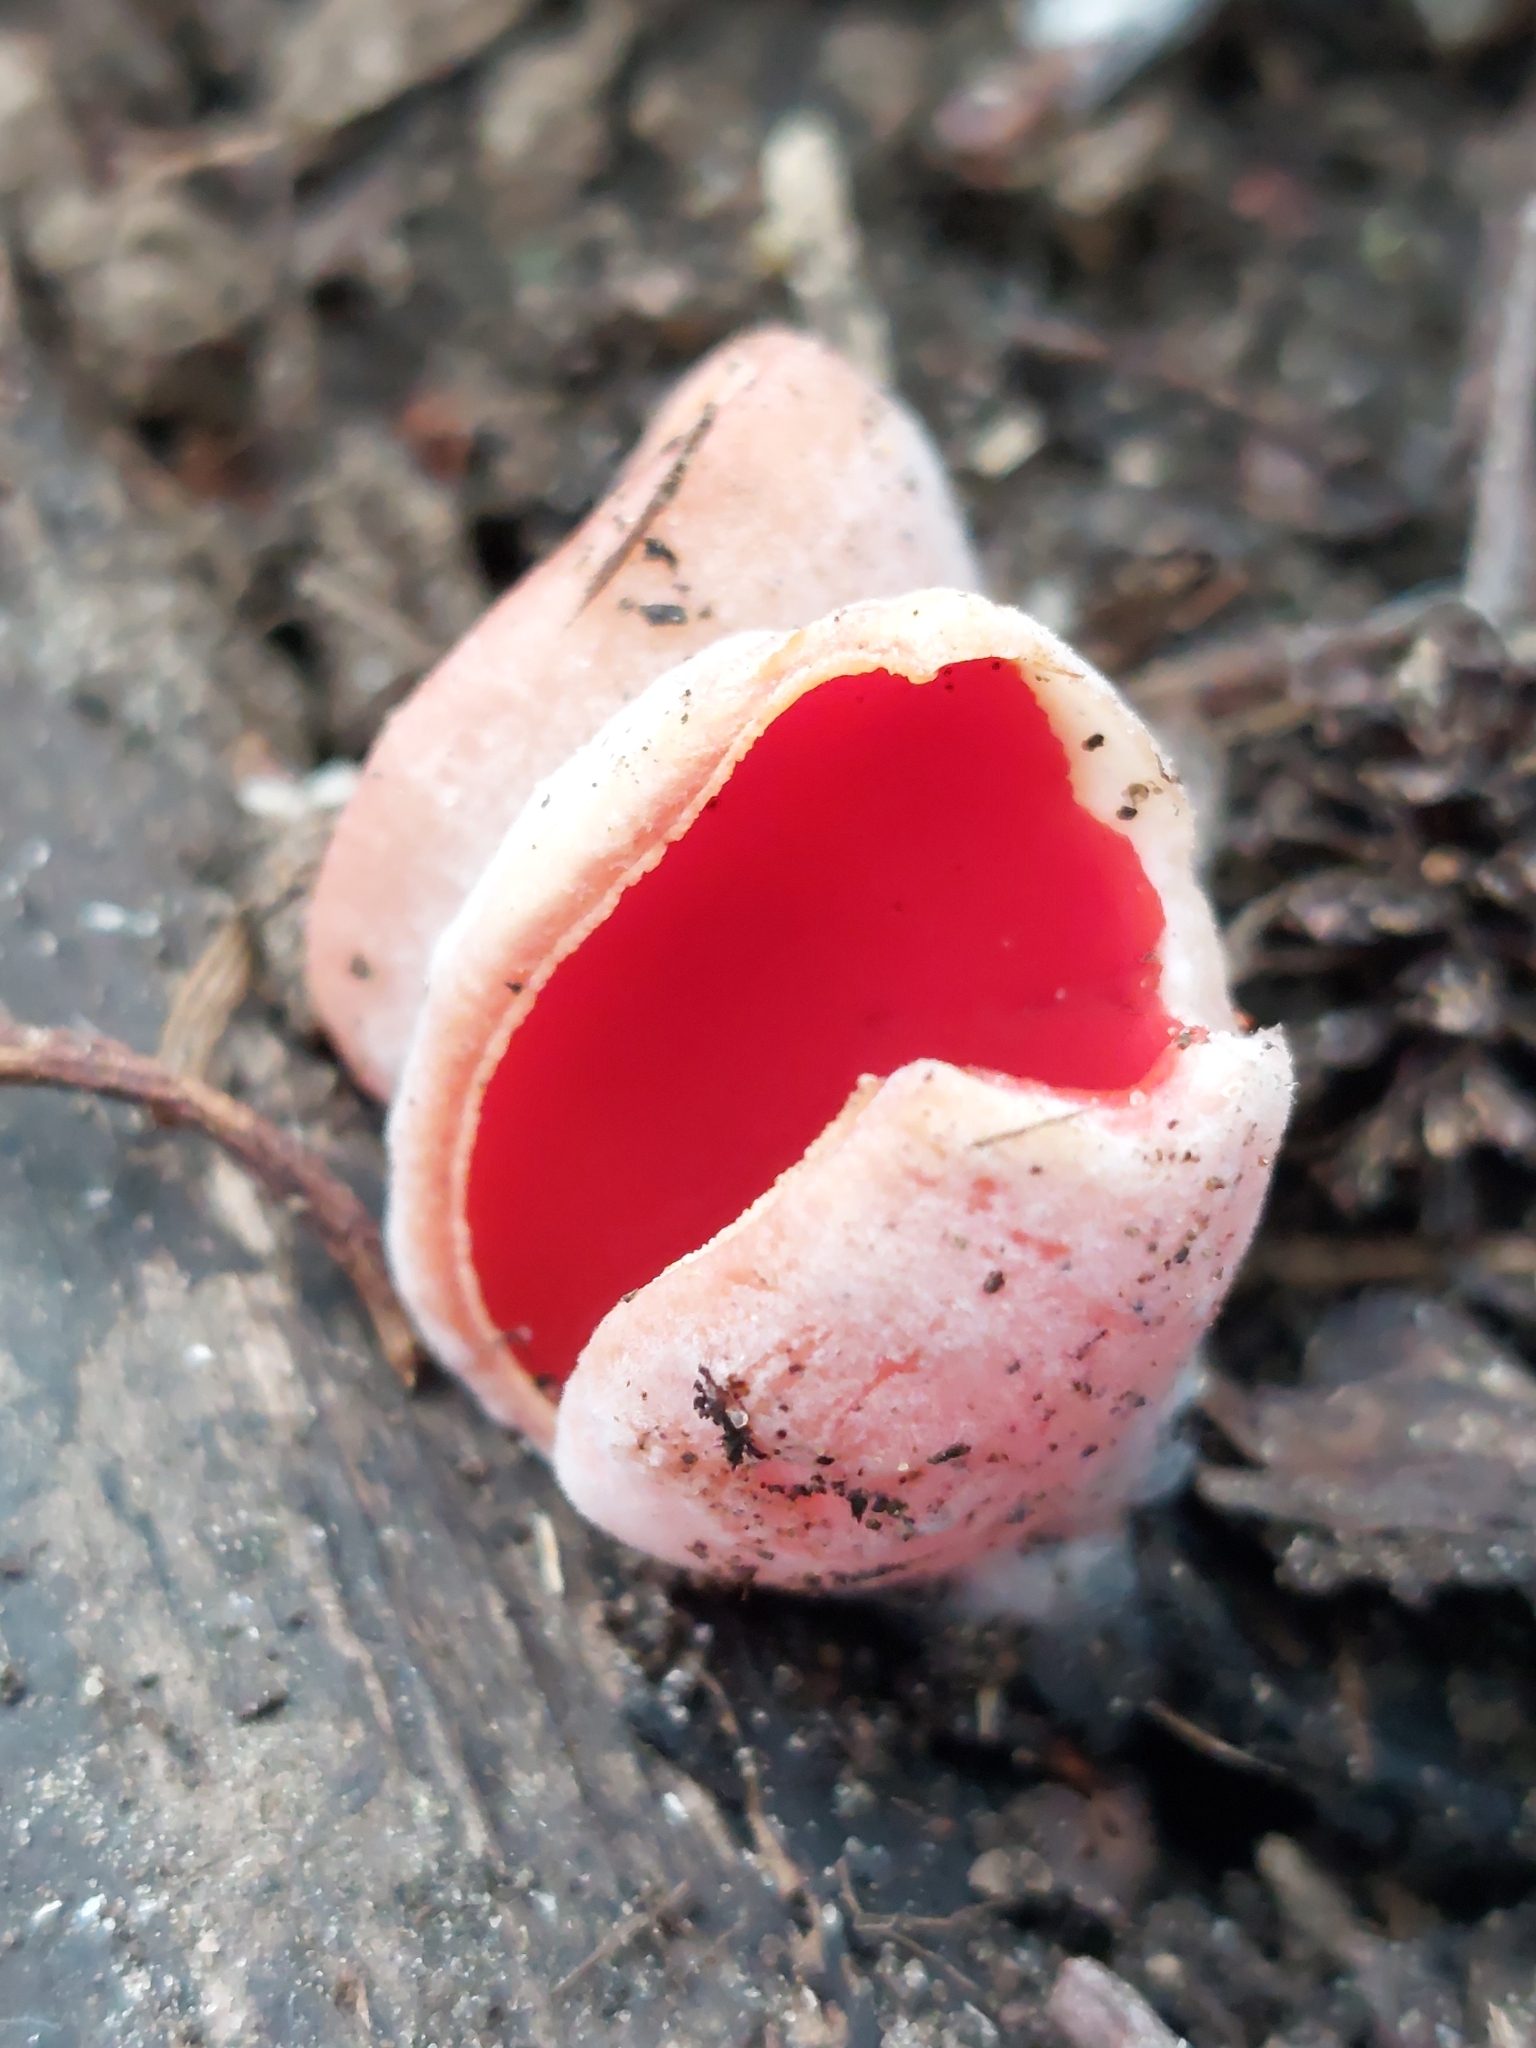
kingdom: Fungi
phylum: Ascomycota
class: Pezizomycetes
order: Pezizales
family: Sarcoscyphaceae
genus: Sarcoscypha
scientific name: Sarcoscypha
